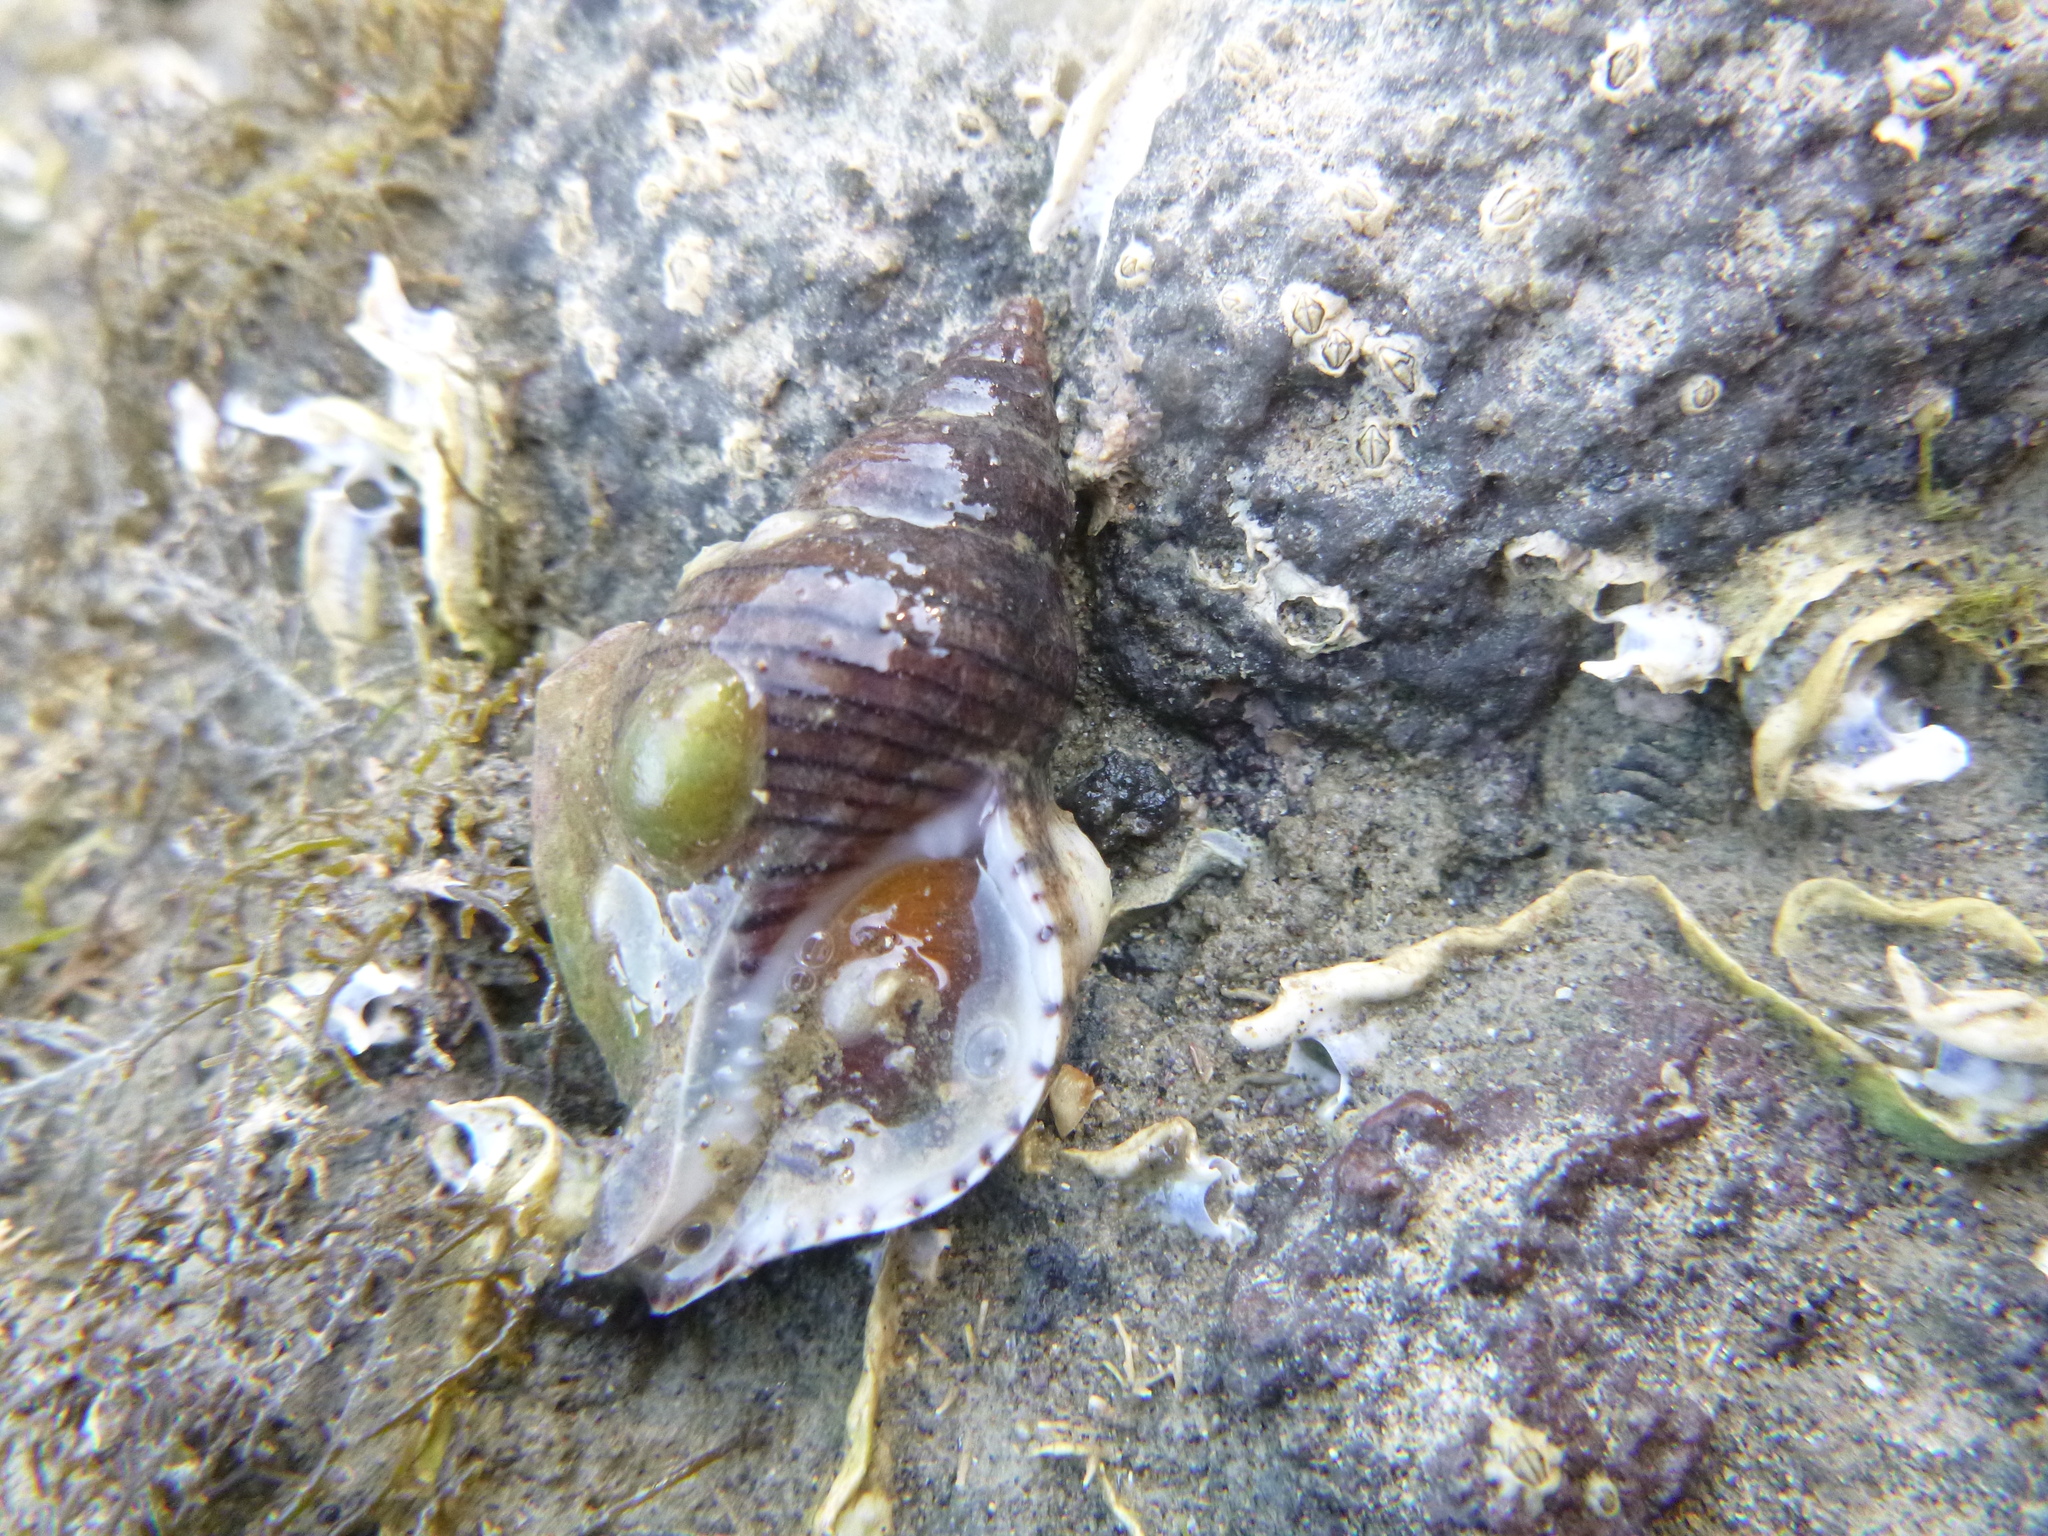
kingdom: Animalia
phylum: Mollusca
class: Gastropoda
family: Lottiidae
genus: Notoacmea
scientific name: Notoacmea
